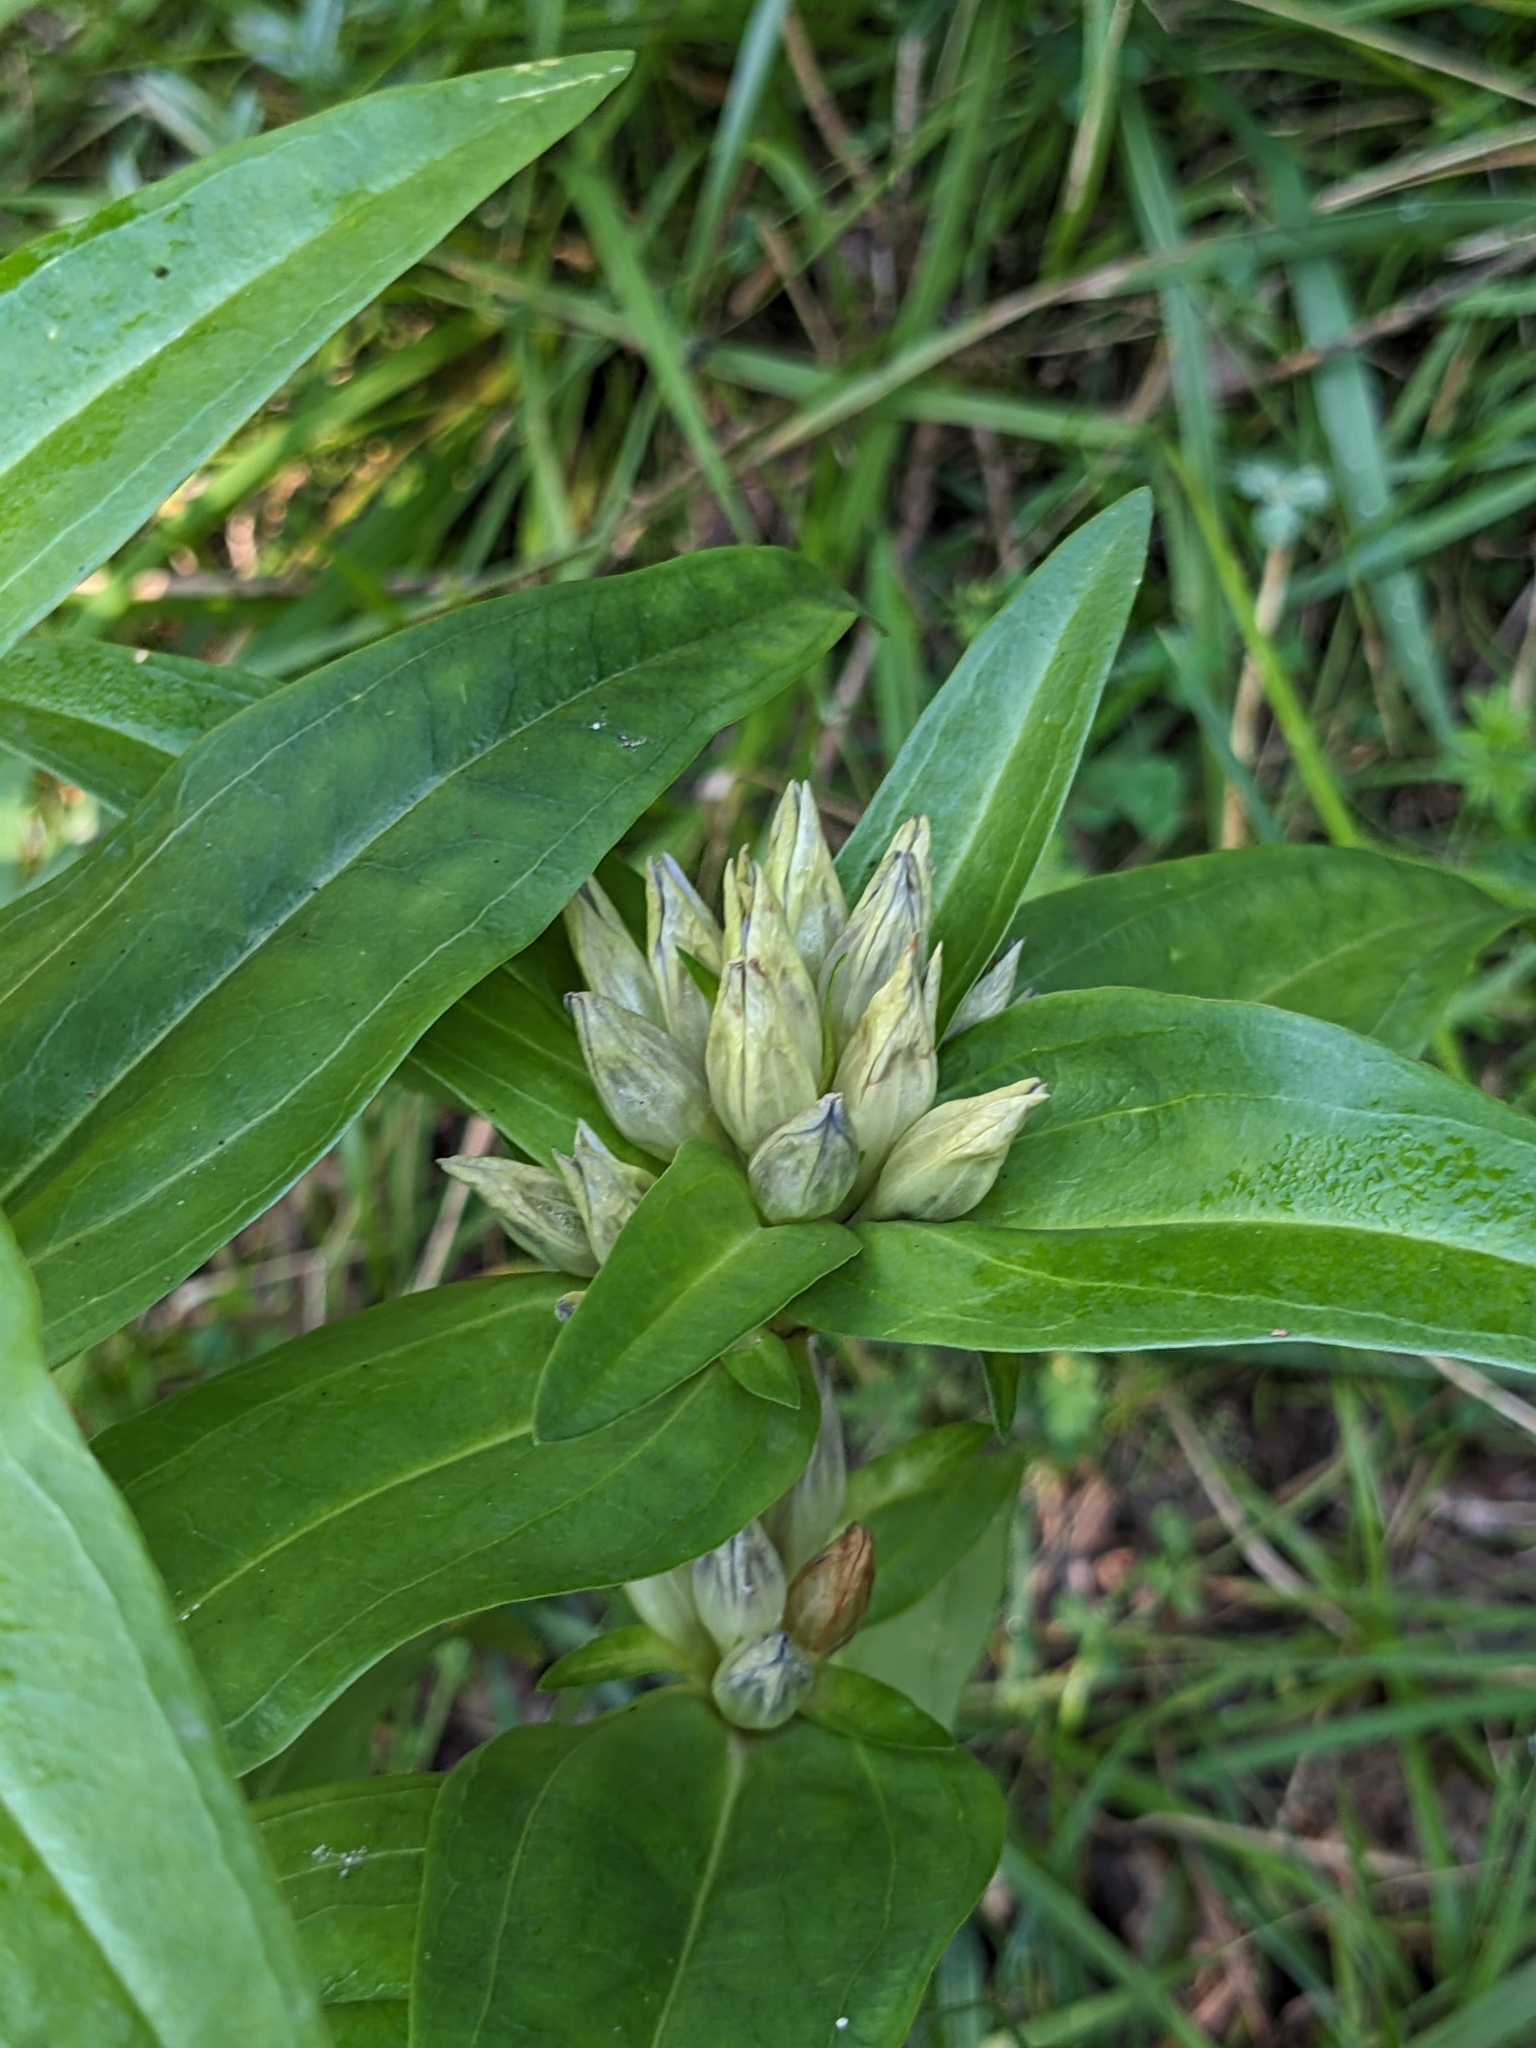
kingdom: Plantae
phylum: Tracheophyta
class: Magnoliopsida
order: Gentianales
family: Gentianaceae
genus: Gentiana
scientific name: Gentiana cruciata
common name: Cross gentian
